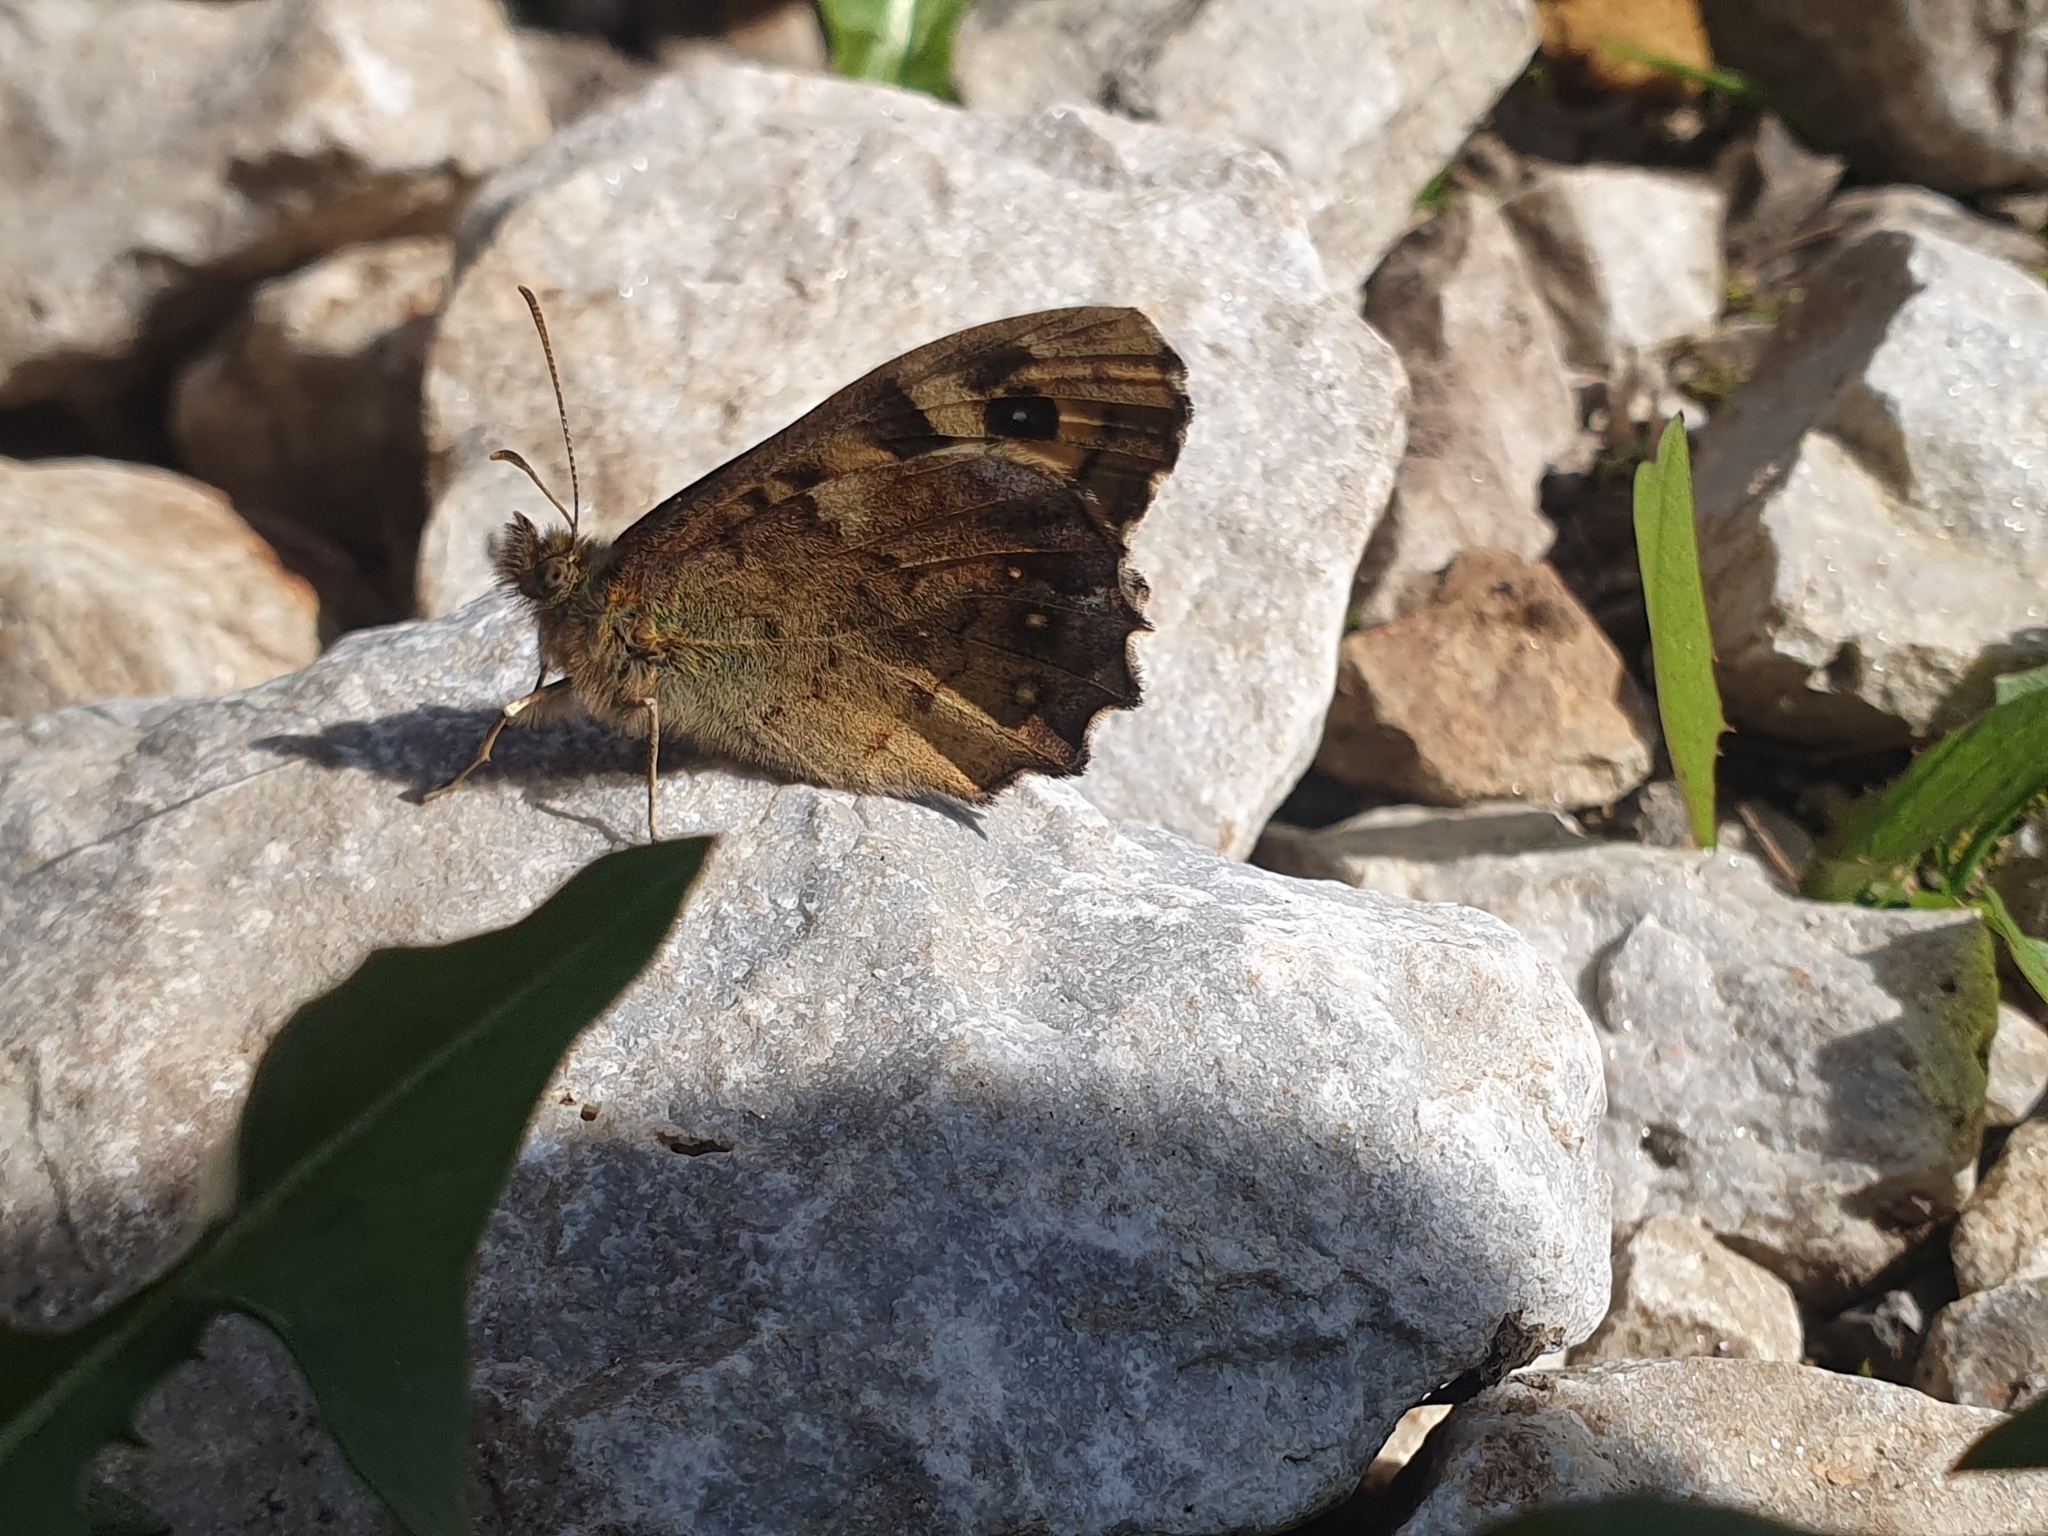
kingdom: Animalia
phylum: Arthropoda
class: Insecta
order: Lepidoptera
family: Nymphalidae
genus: Pararge
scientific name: Pararge aegeria
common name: Speckled wood
